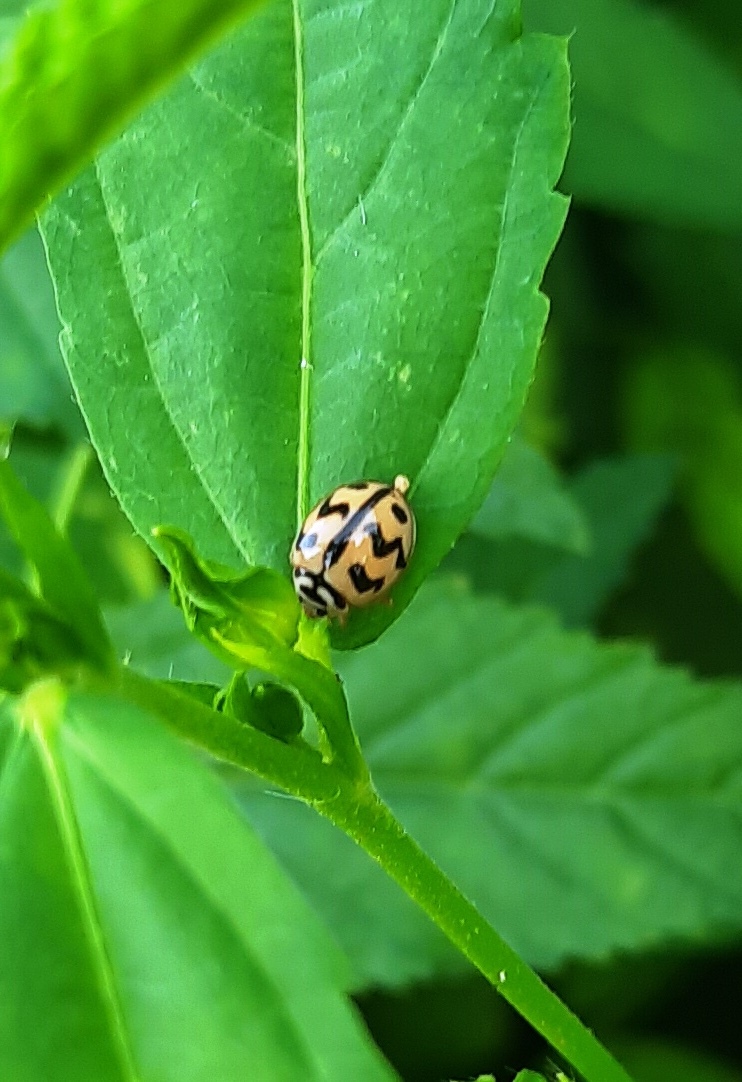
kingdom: Animalia
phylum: Arthropoda
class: Insecta
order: Coleoptera
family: Coccinellidae
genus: Cheilomenes
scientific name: Cheilomenes sexmaculata
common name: Ladybird beetle
